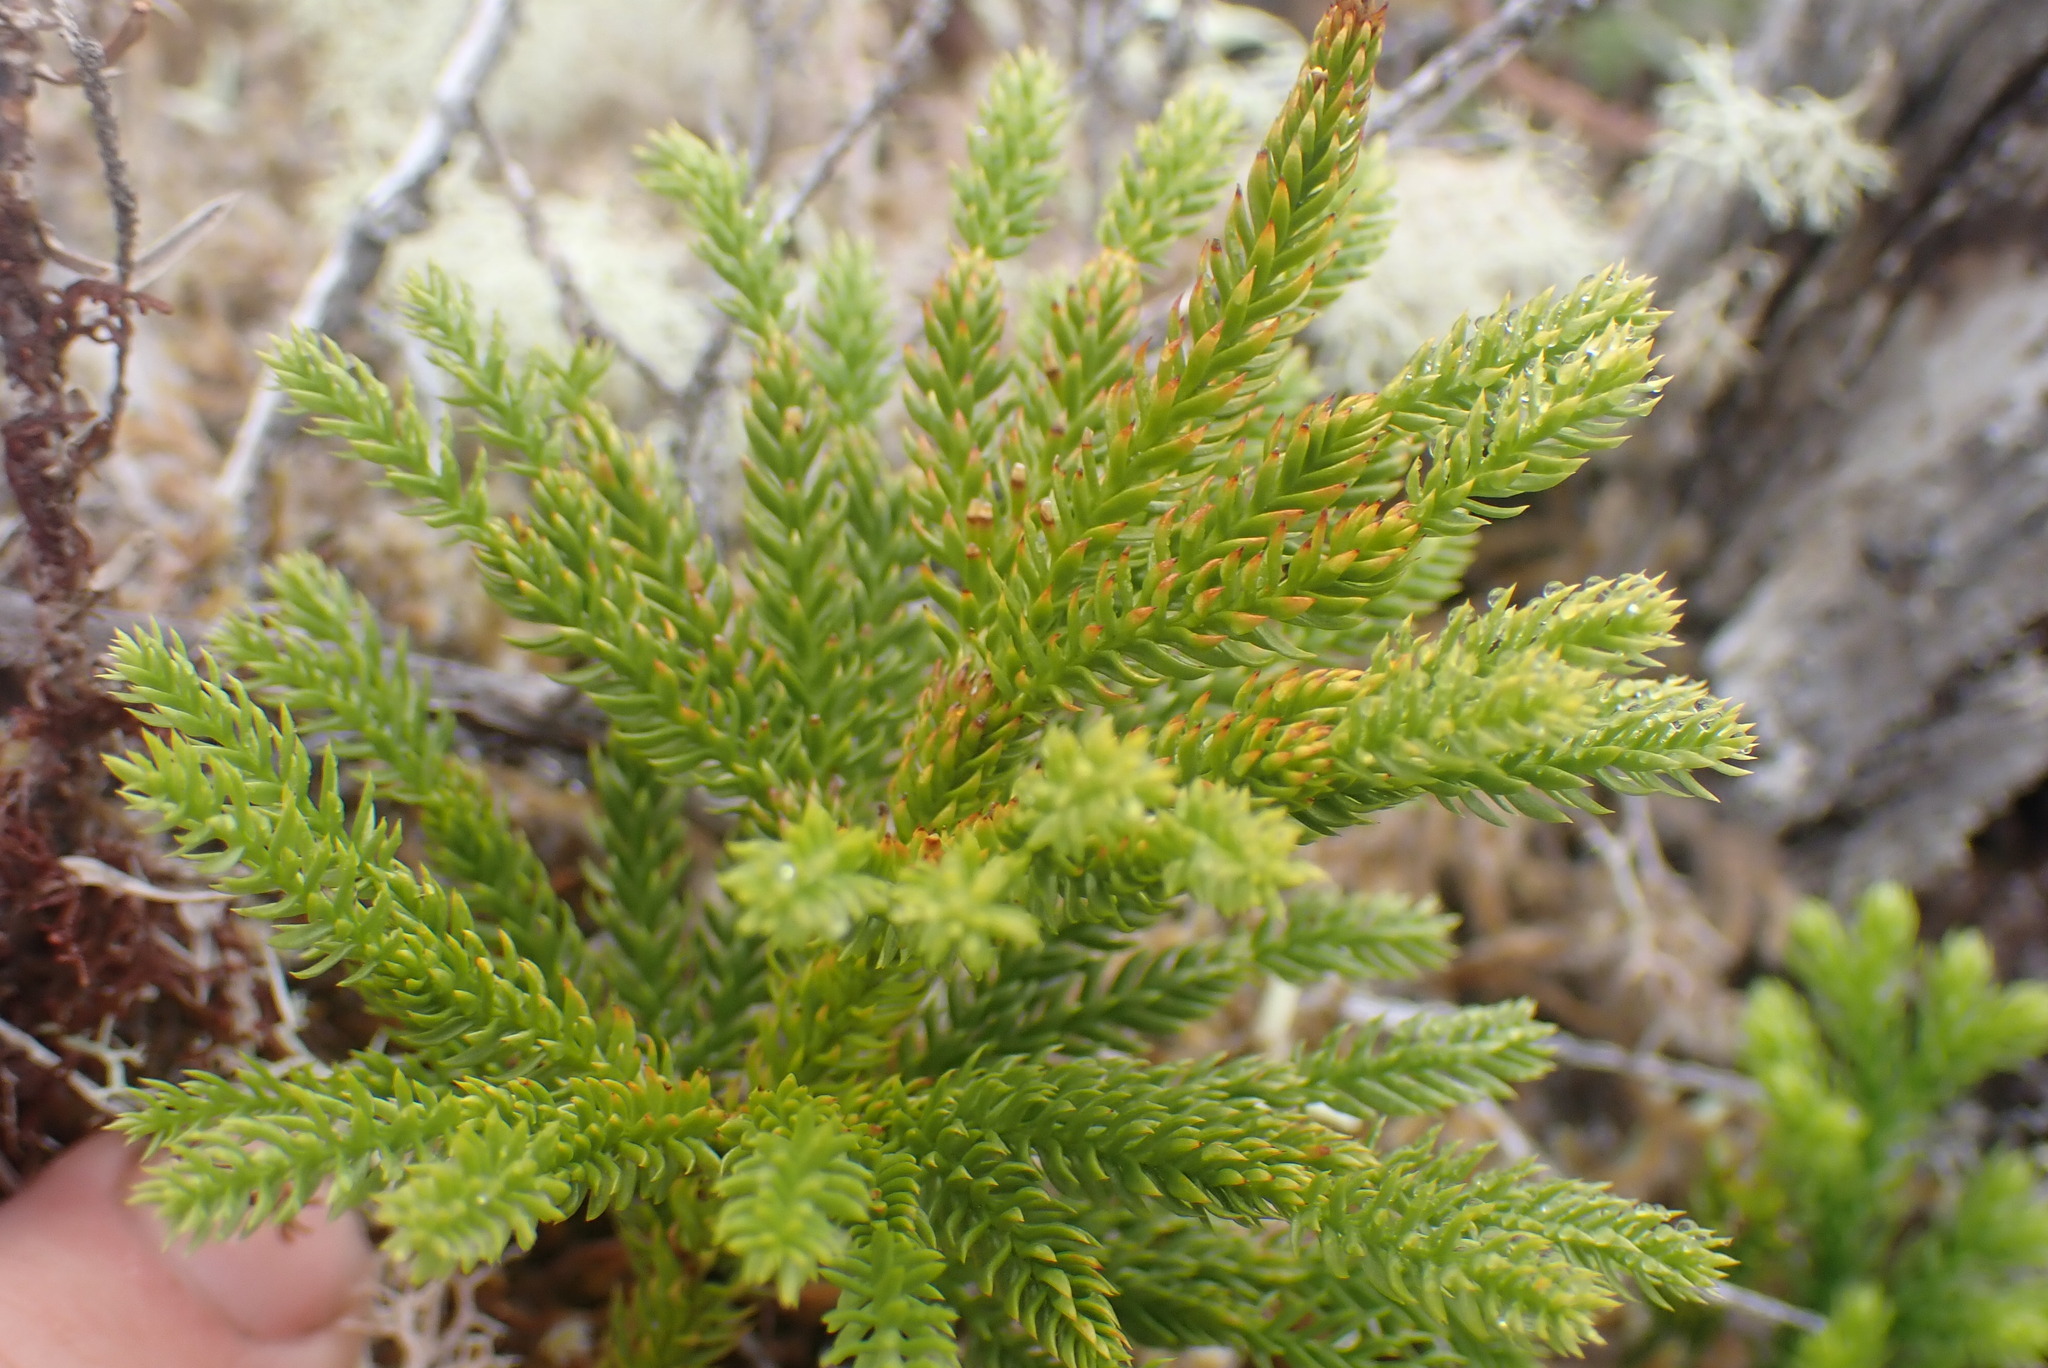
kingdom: Plantae
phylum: Tracheophyta
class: Lycopodiopsida
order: Lycopodiales
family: Lycopodiaceae
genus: Dendrolycopodium
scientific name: Dendrolycopodium dendroideum
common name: Northern tree-clubmoss
